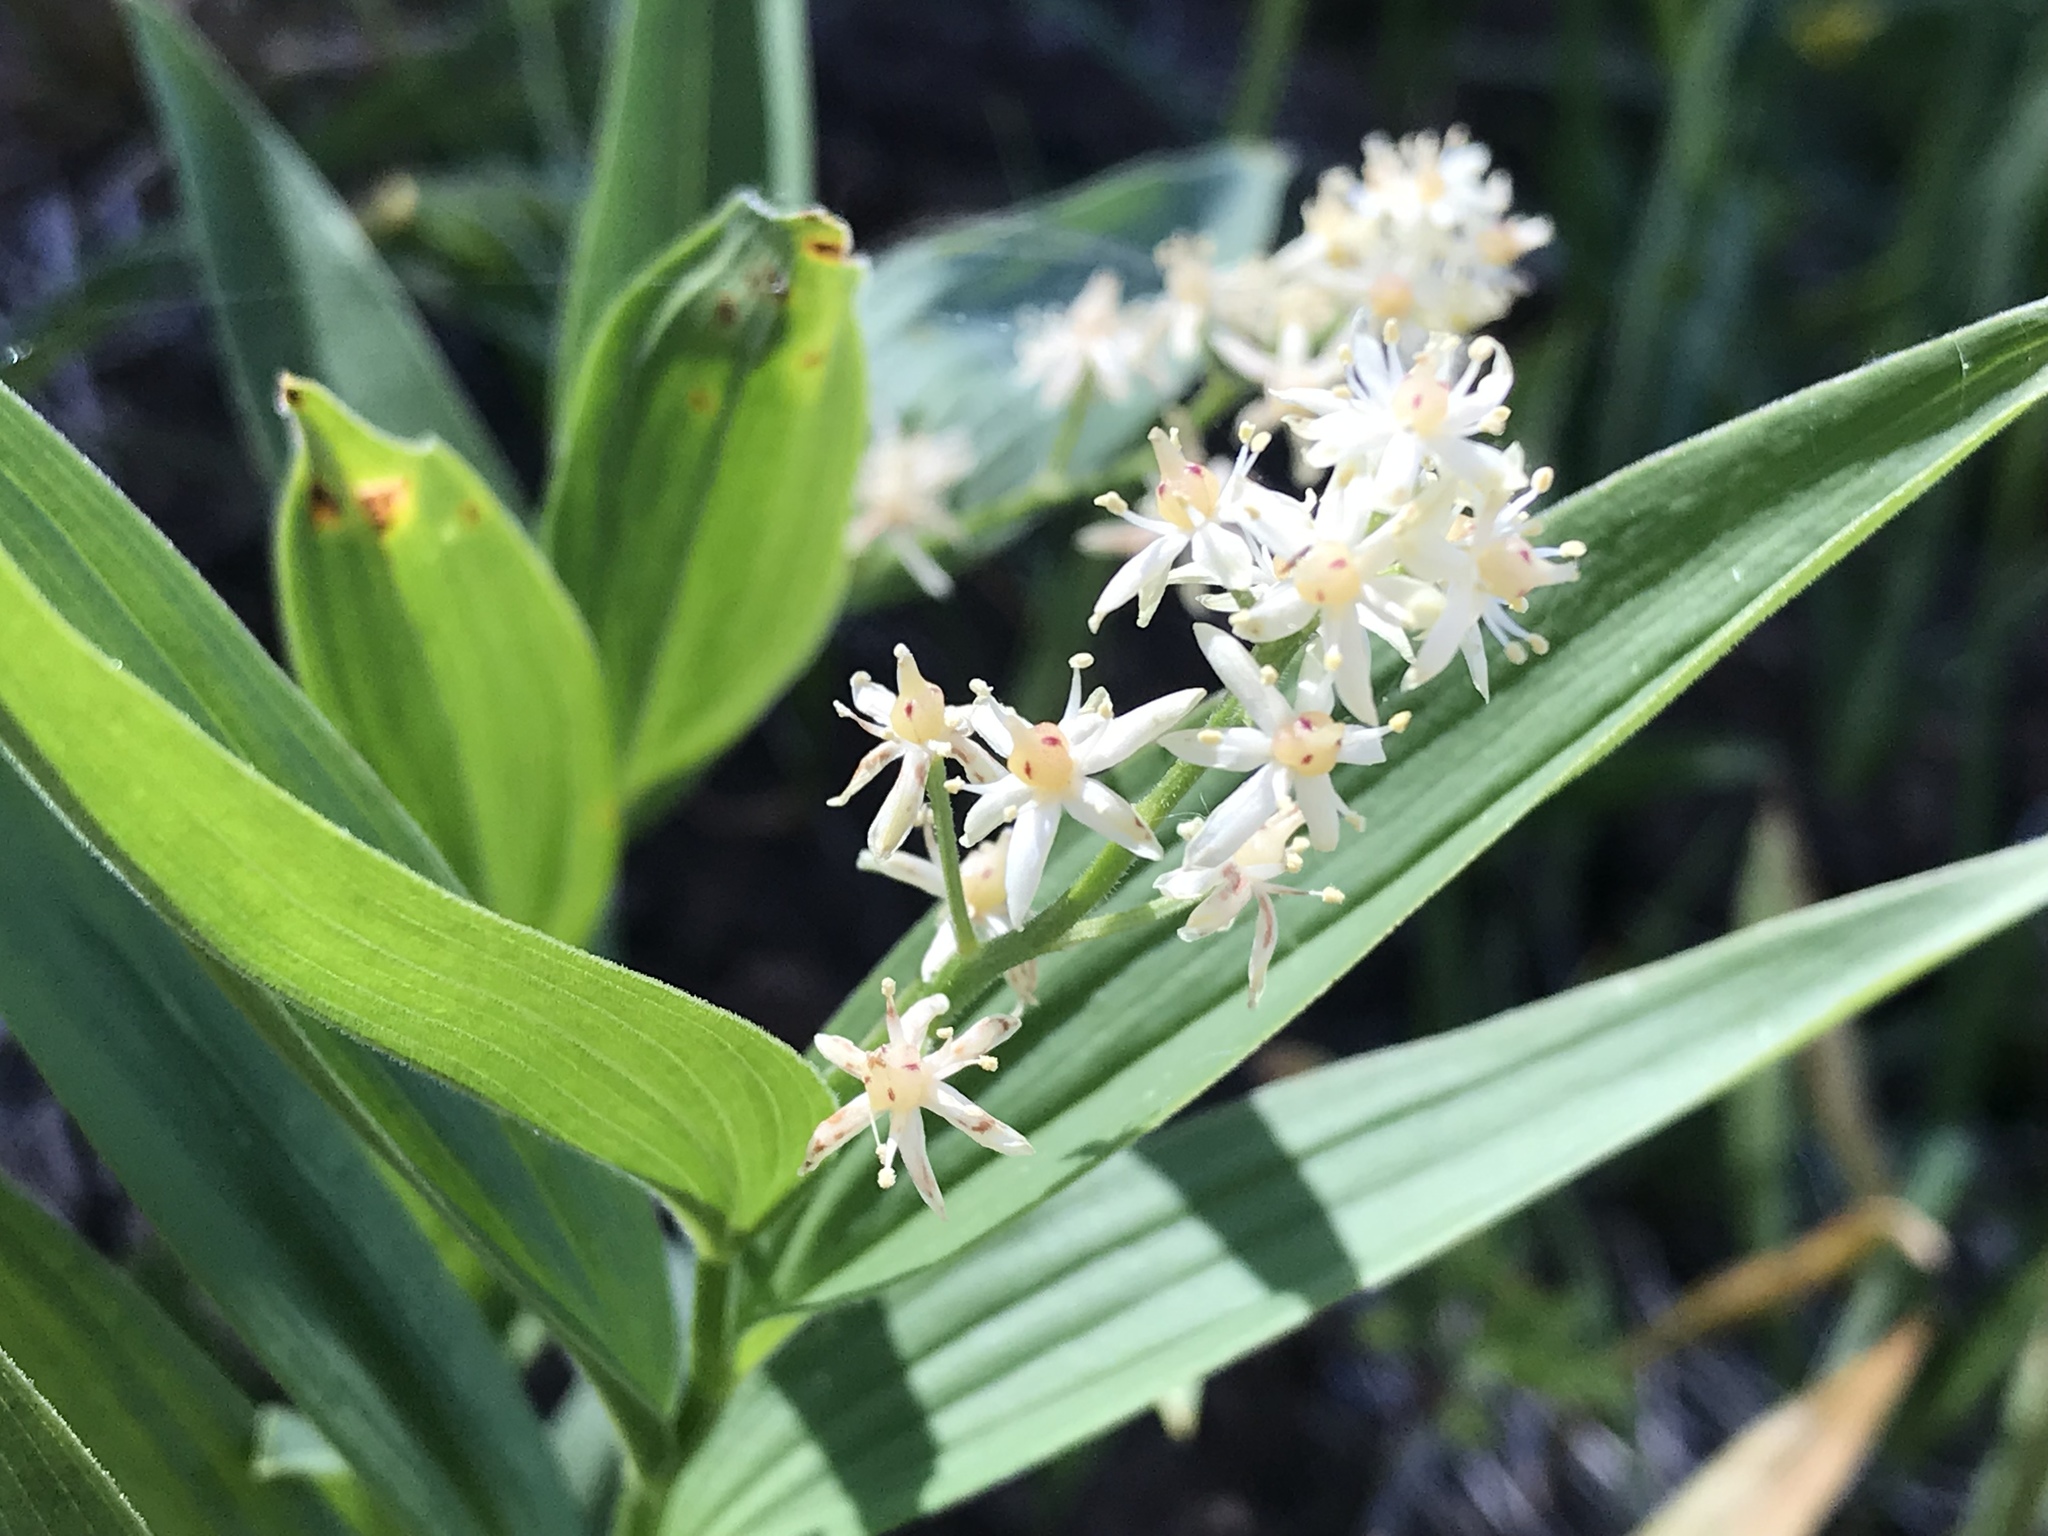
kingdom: Plantae
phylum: Tracheophyta
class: Liliopsida
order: Asparagales
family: Asparagaceae
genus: Maianthemum
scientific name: Maianthemum stellatum
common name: Little false solomon's seal
